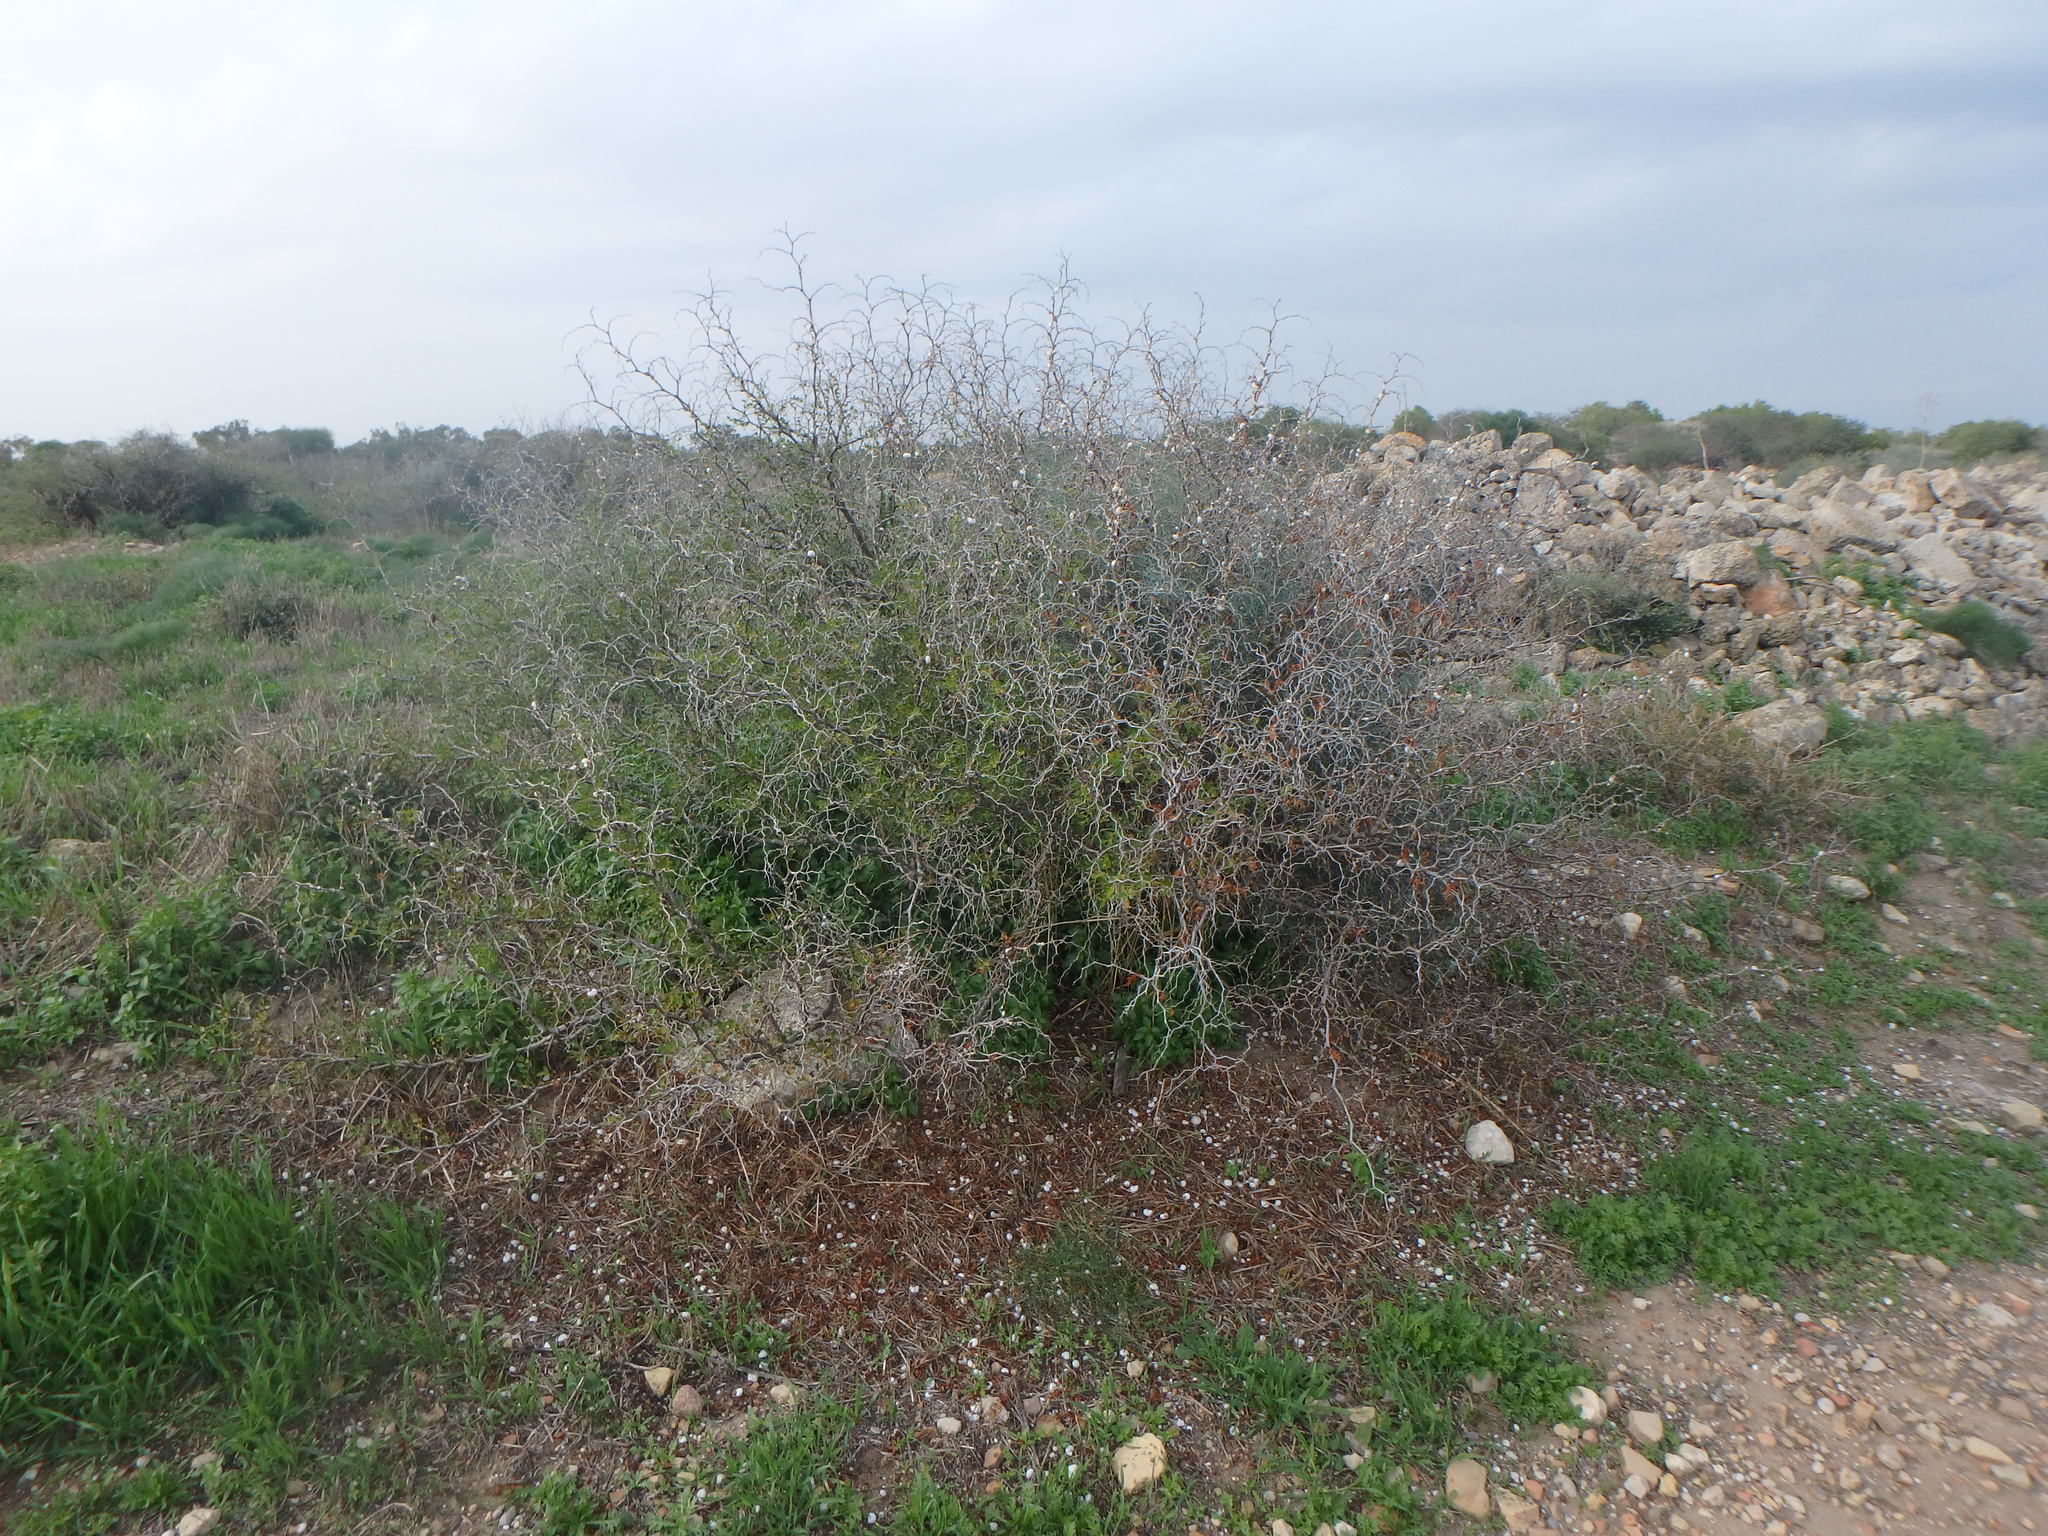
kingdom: Plantae
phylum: Tracheophyta
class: Magnoliopsida
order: Rosales
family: Rhamnaceae
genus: Ziziphus
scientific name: Ziziphus lotus
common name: Lotus
